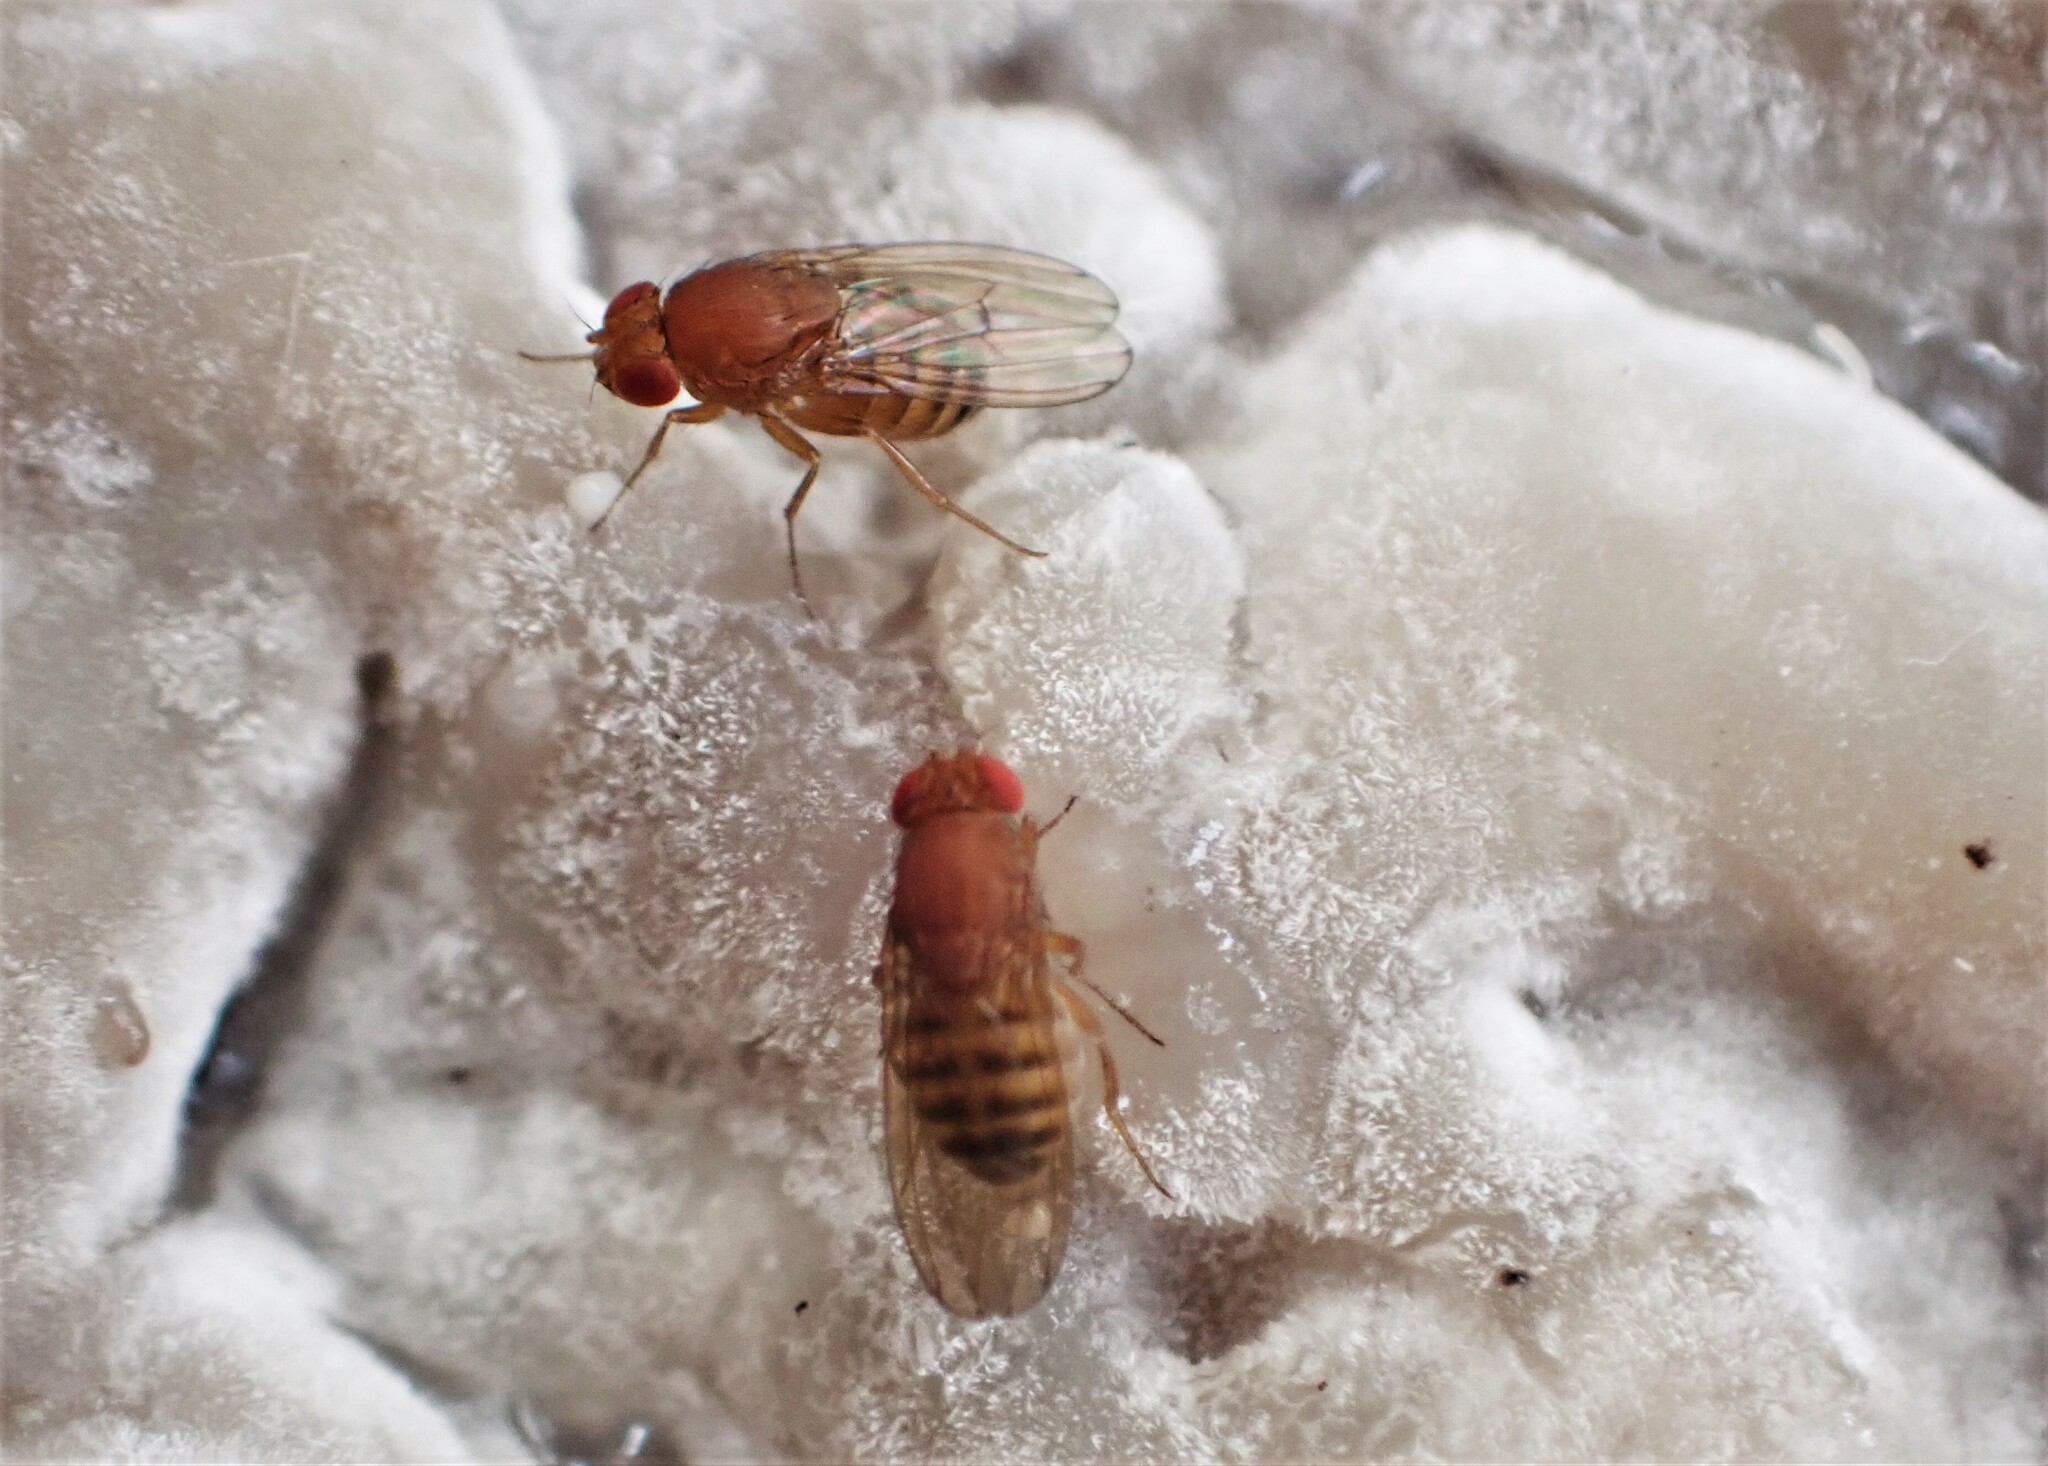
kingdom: Animalia
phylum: Arthropoda
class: Insecta
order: Diptera
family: Drosophilidae
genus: Drosophila
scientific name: Drosophila immigrans
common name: Pomace fly
